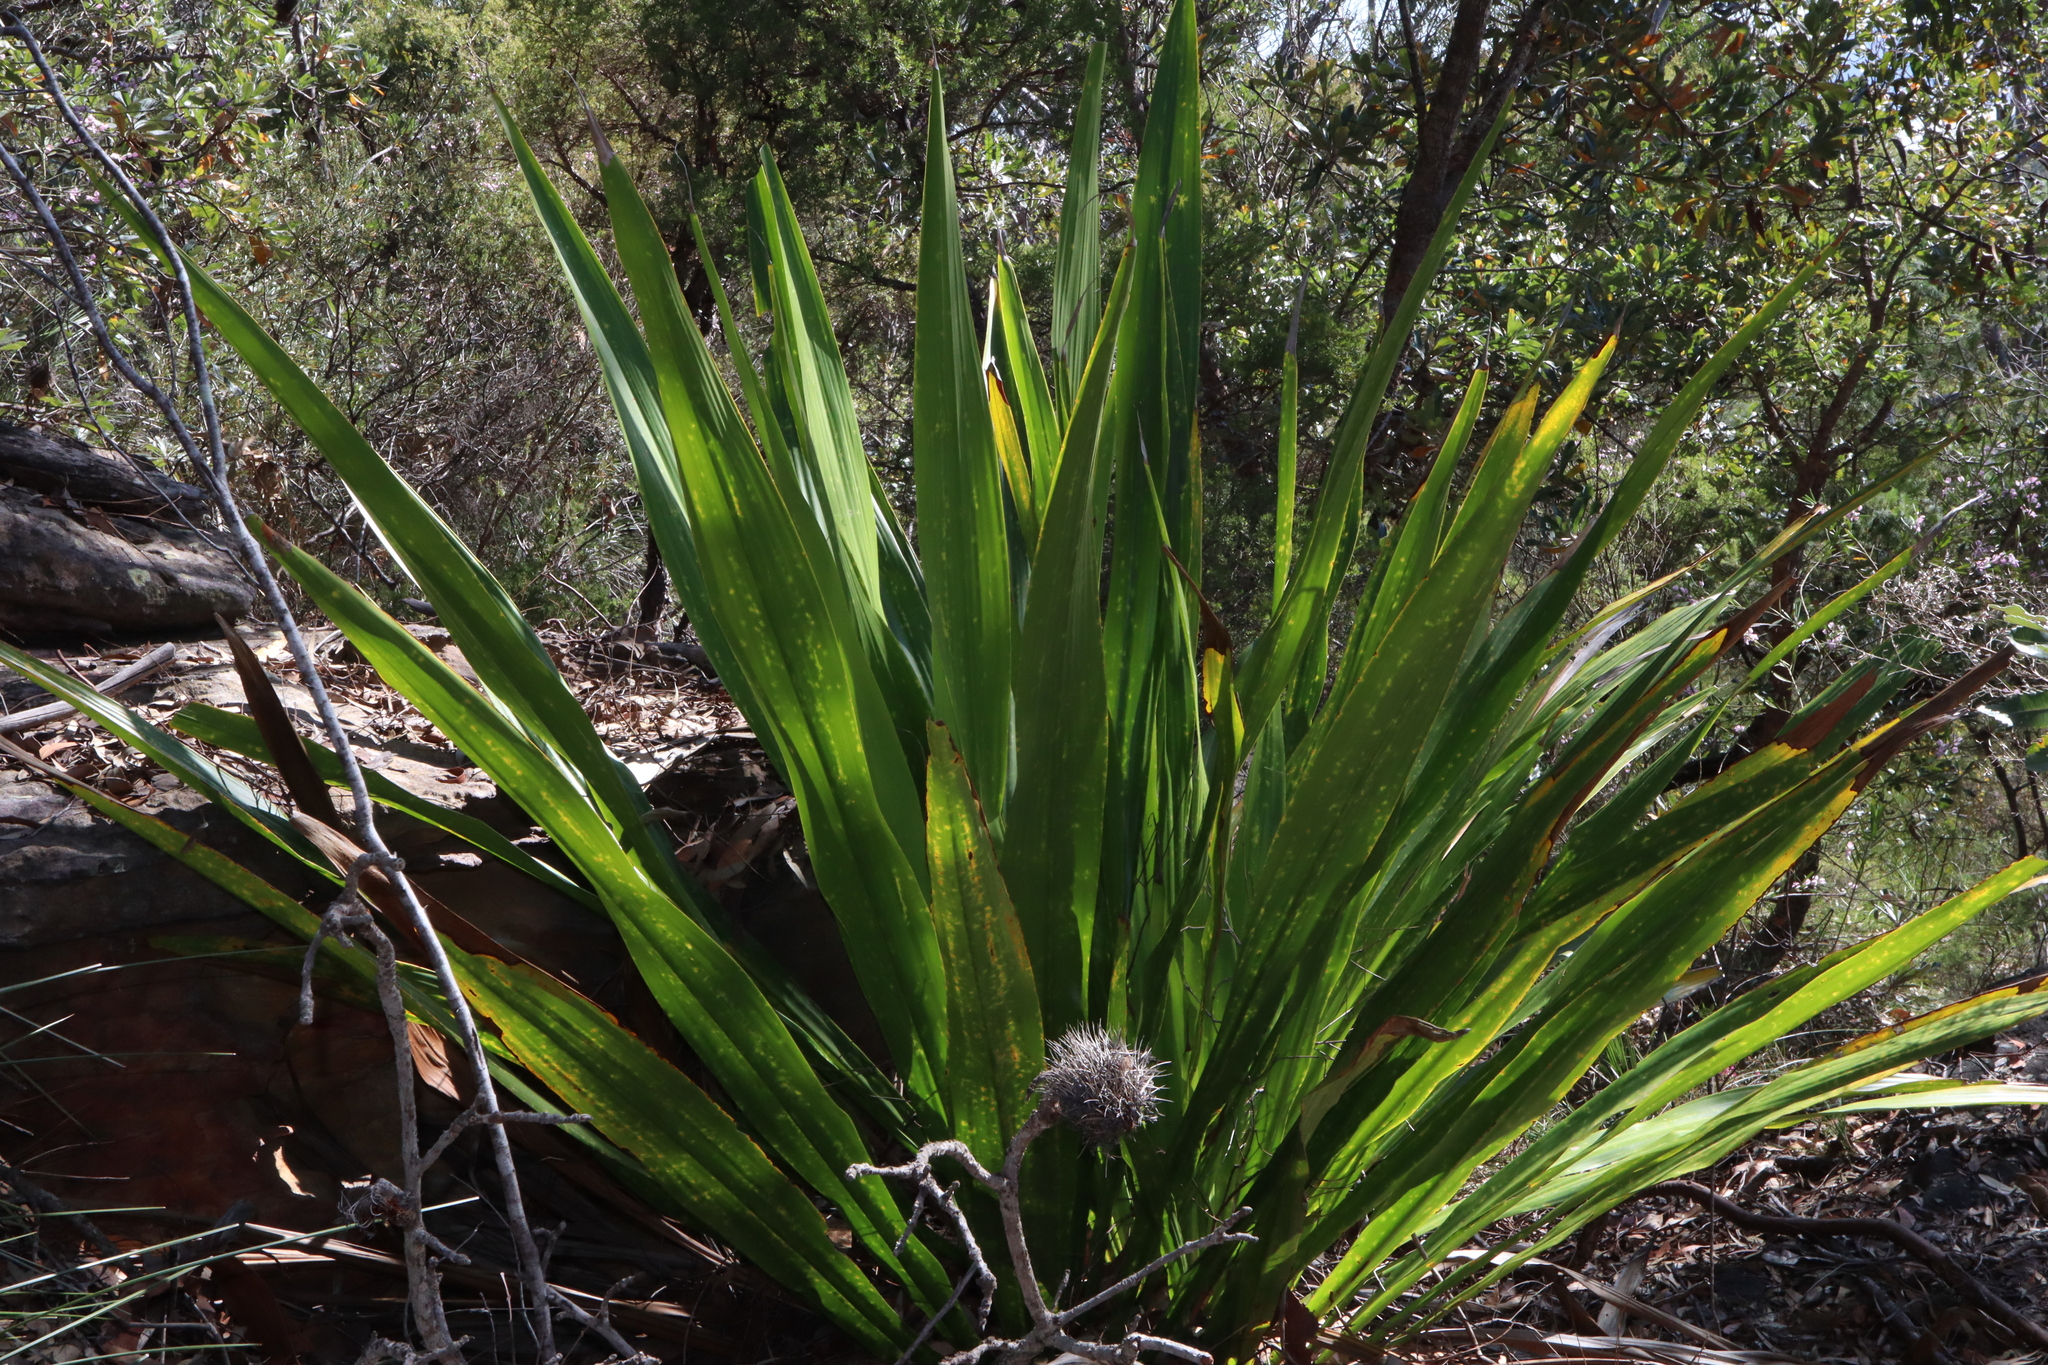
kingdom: Plantae
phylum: Tracheophyta
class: Liliopsida
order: Asparagales
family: Doryanthaceae
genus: Doryanthes
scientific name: Doryanthes excelsa
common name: Giant-lily
